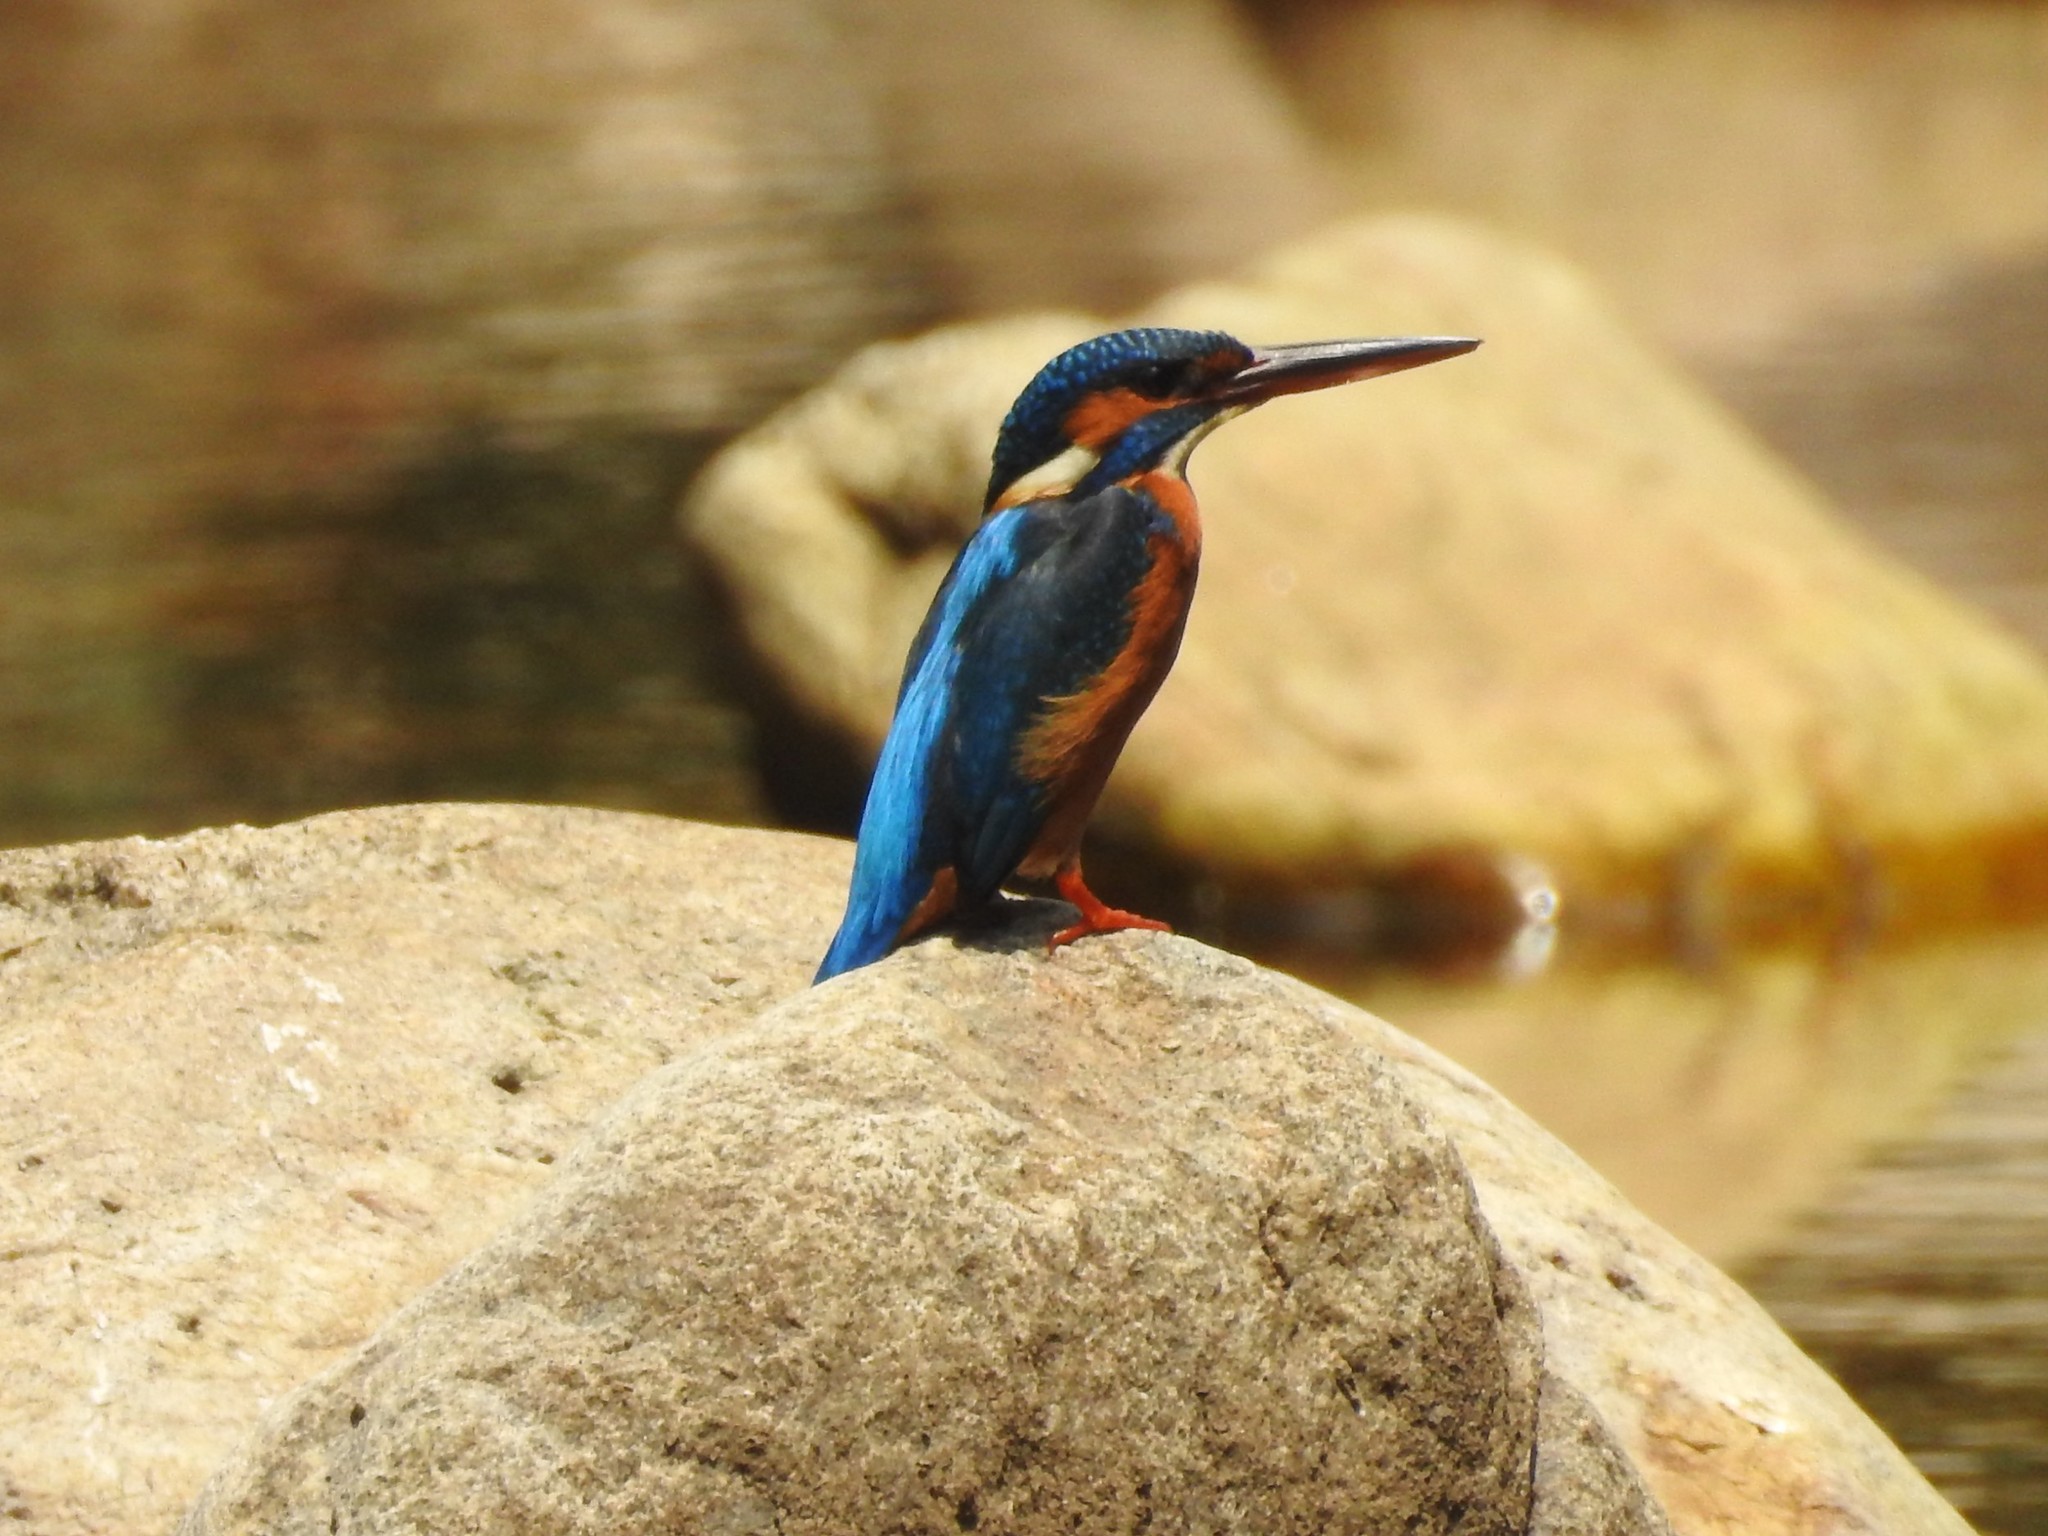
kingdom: Animalia
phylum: Chordata
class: Aves
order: Coraciiformes
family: Alcedinidae
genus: Alcedo
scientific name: Alcedo atthis
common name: Common kingfisher
